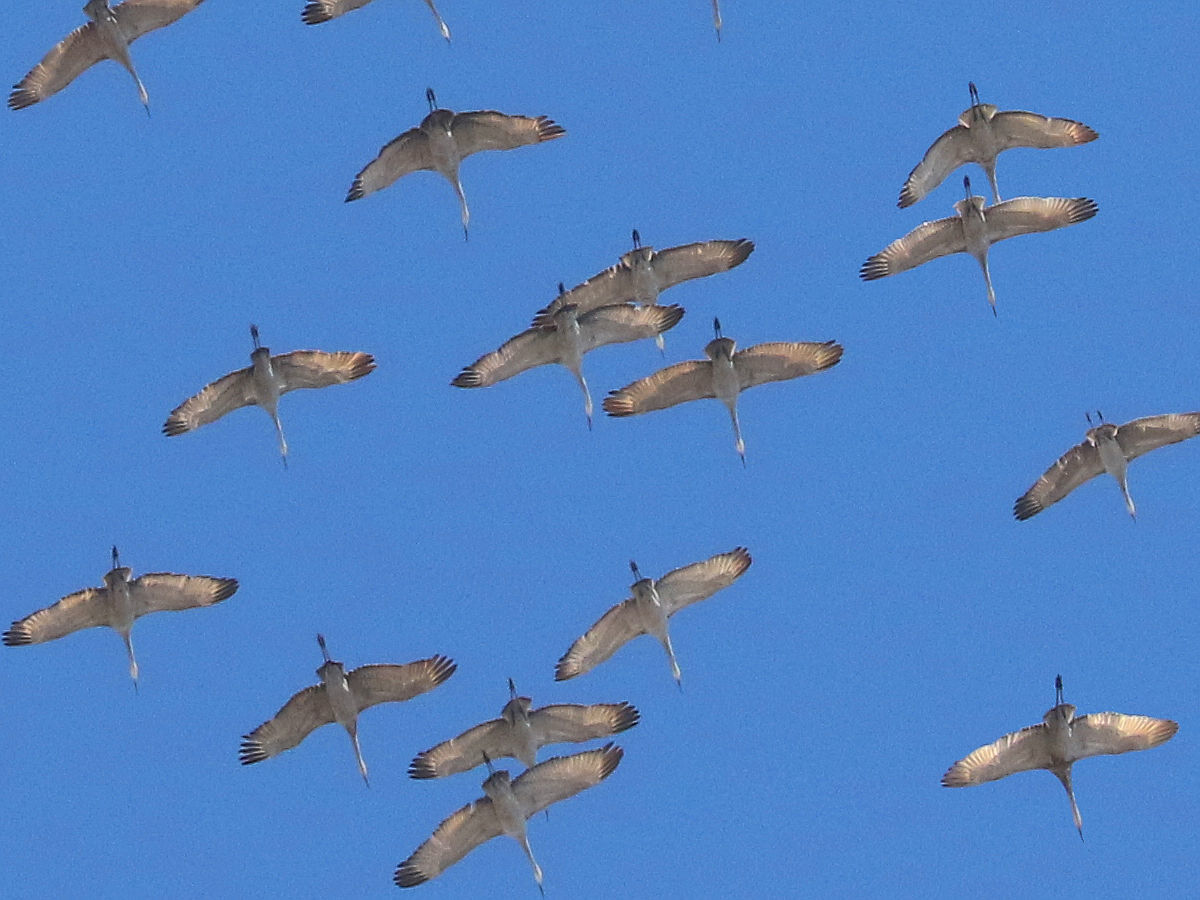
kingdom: Animalia
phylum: Chordata
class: Aves
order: Gruiformes
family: Gruidae
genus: Grus
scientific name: Grus canadensis
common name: Sandhill crane
